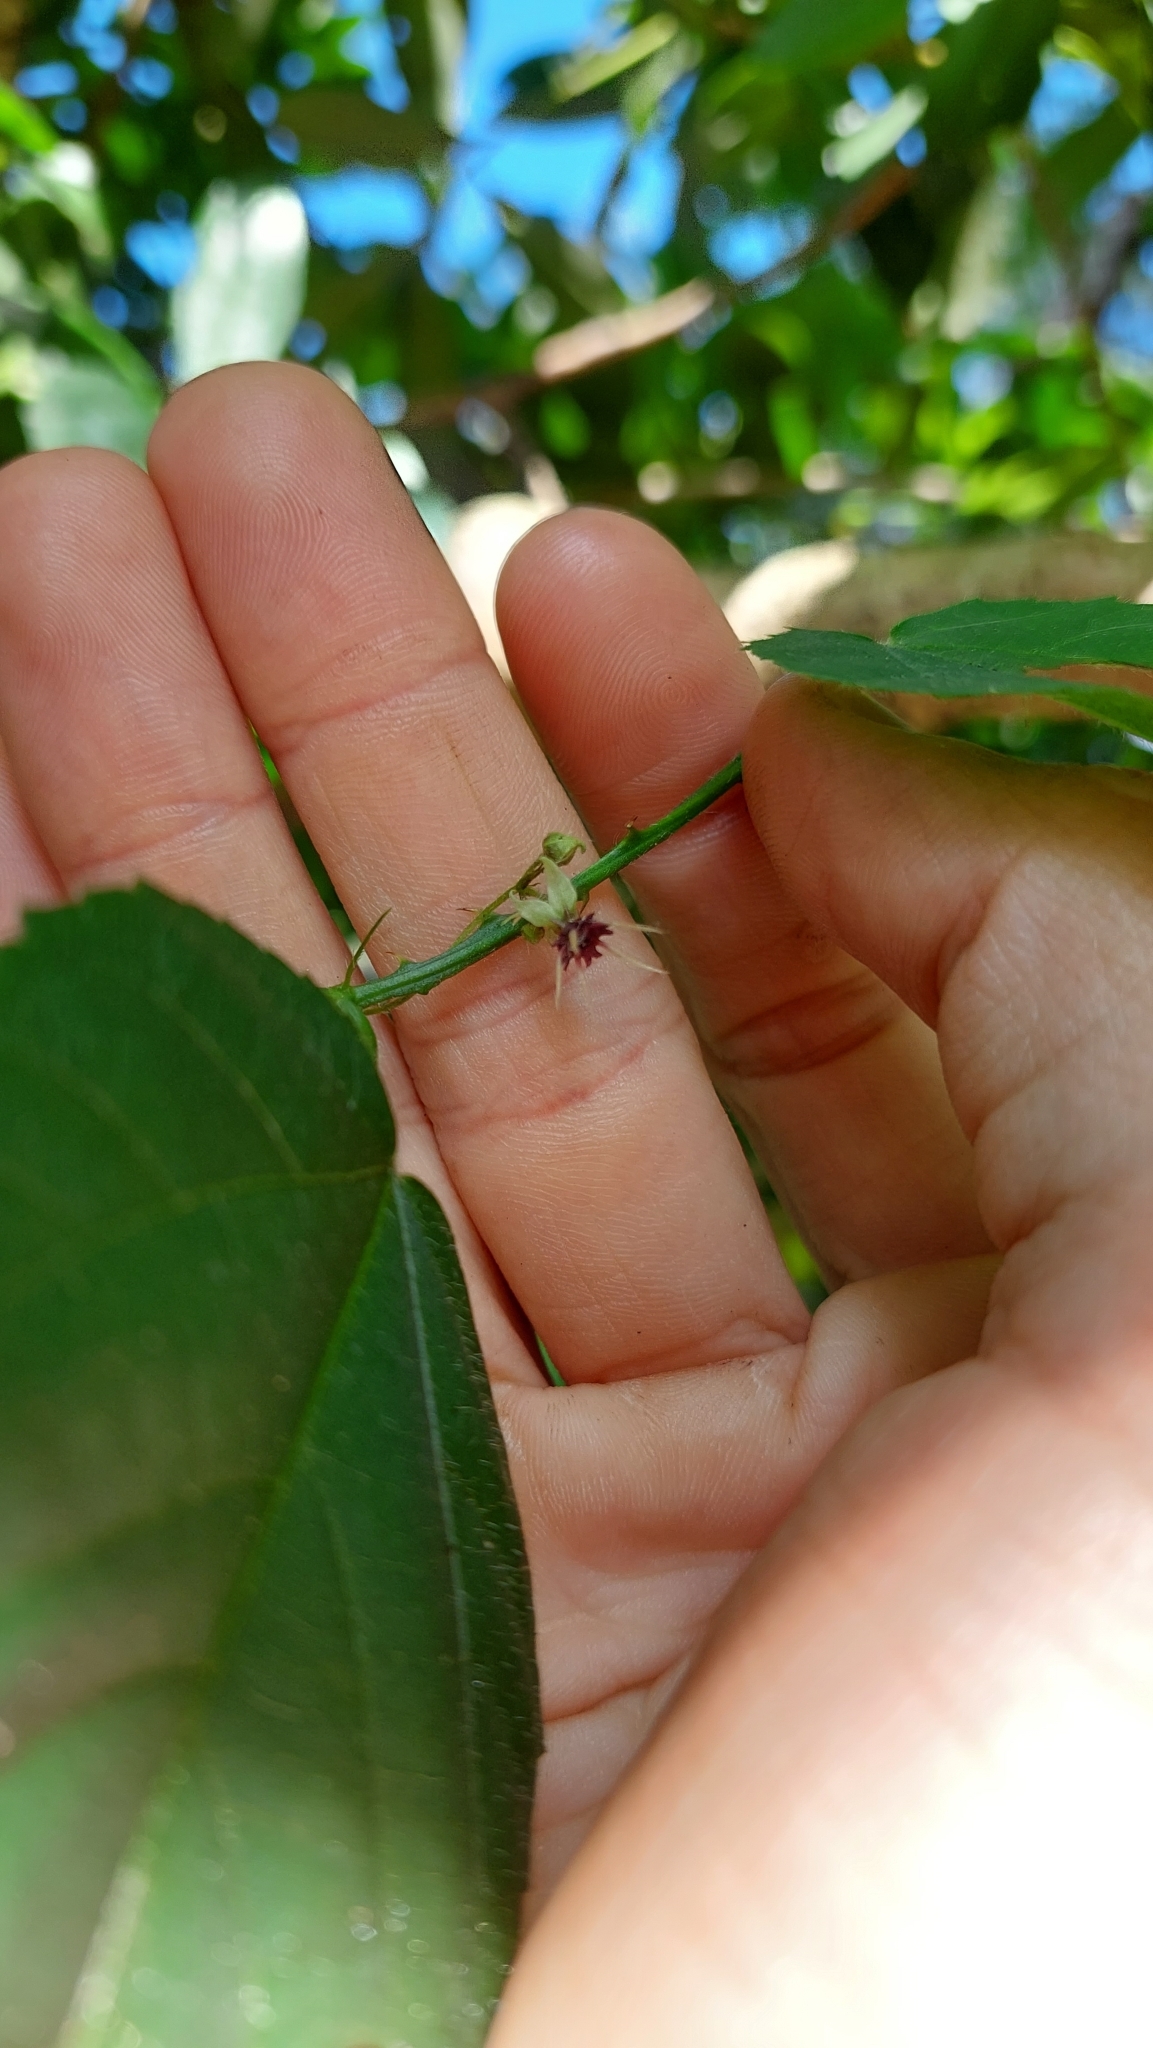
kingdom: Plantae
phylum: Tracheophyta
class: Magnoliopsida
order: Malvales
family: Malvaceae
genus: Byttneria
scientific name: Byttneria urticifolia
